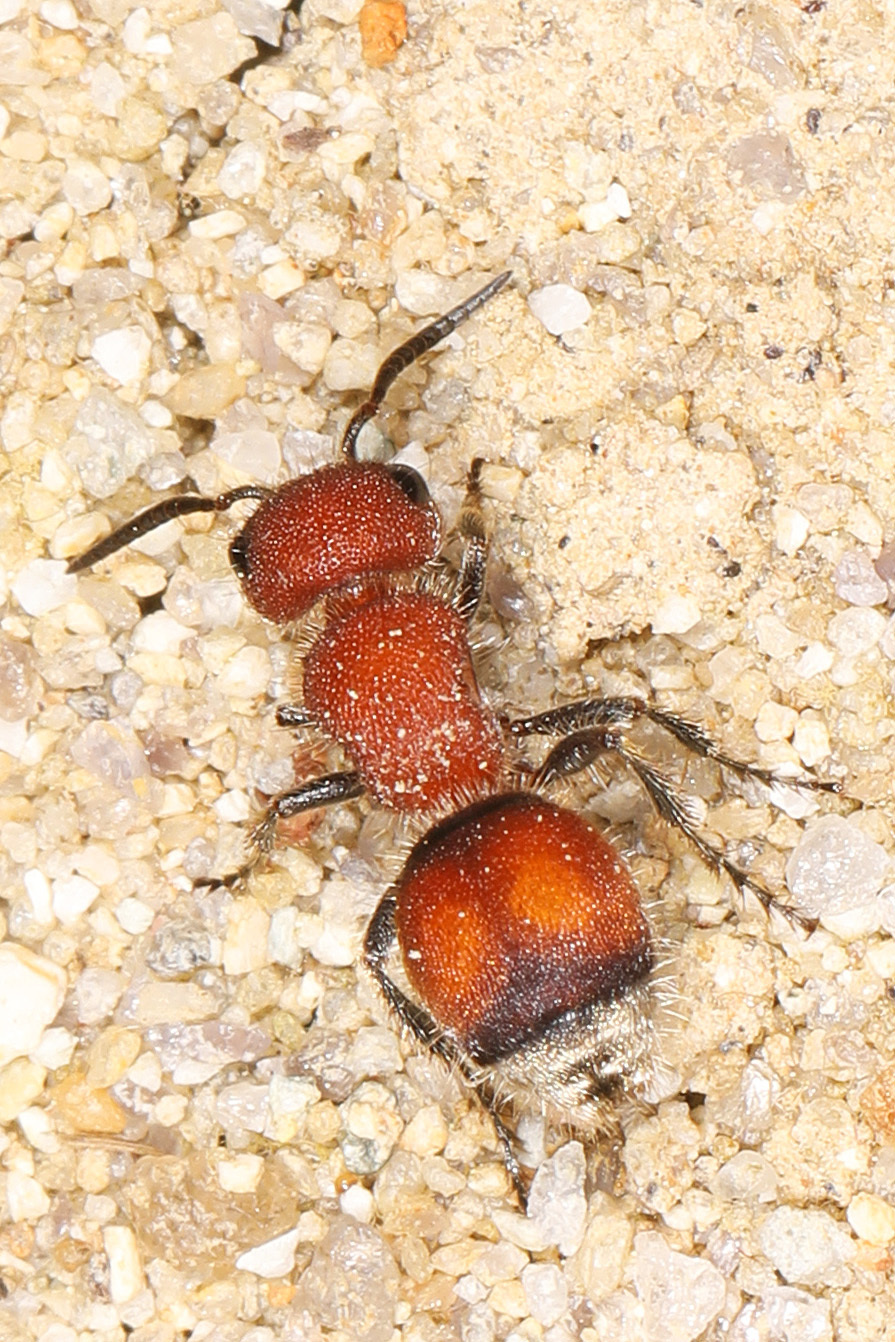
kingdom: Animalia
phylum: Arthropoda
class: Insecta
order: Hymenoptera
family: Mutillidae
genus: Pseudomethoca
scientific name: Pseudomethoca
